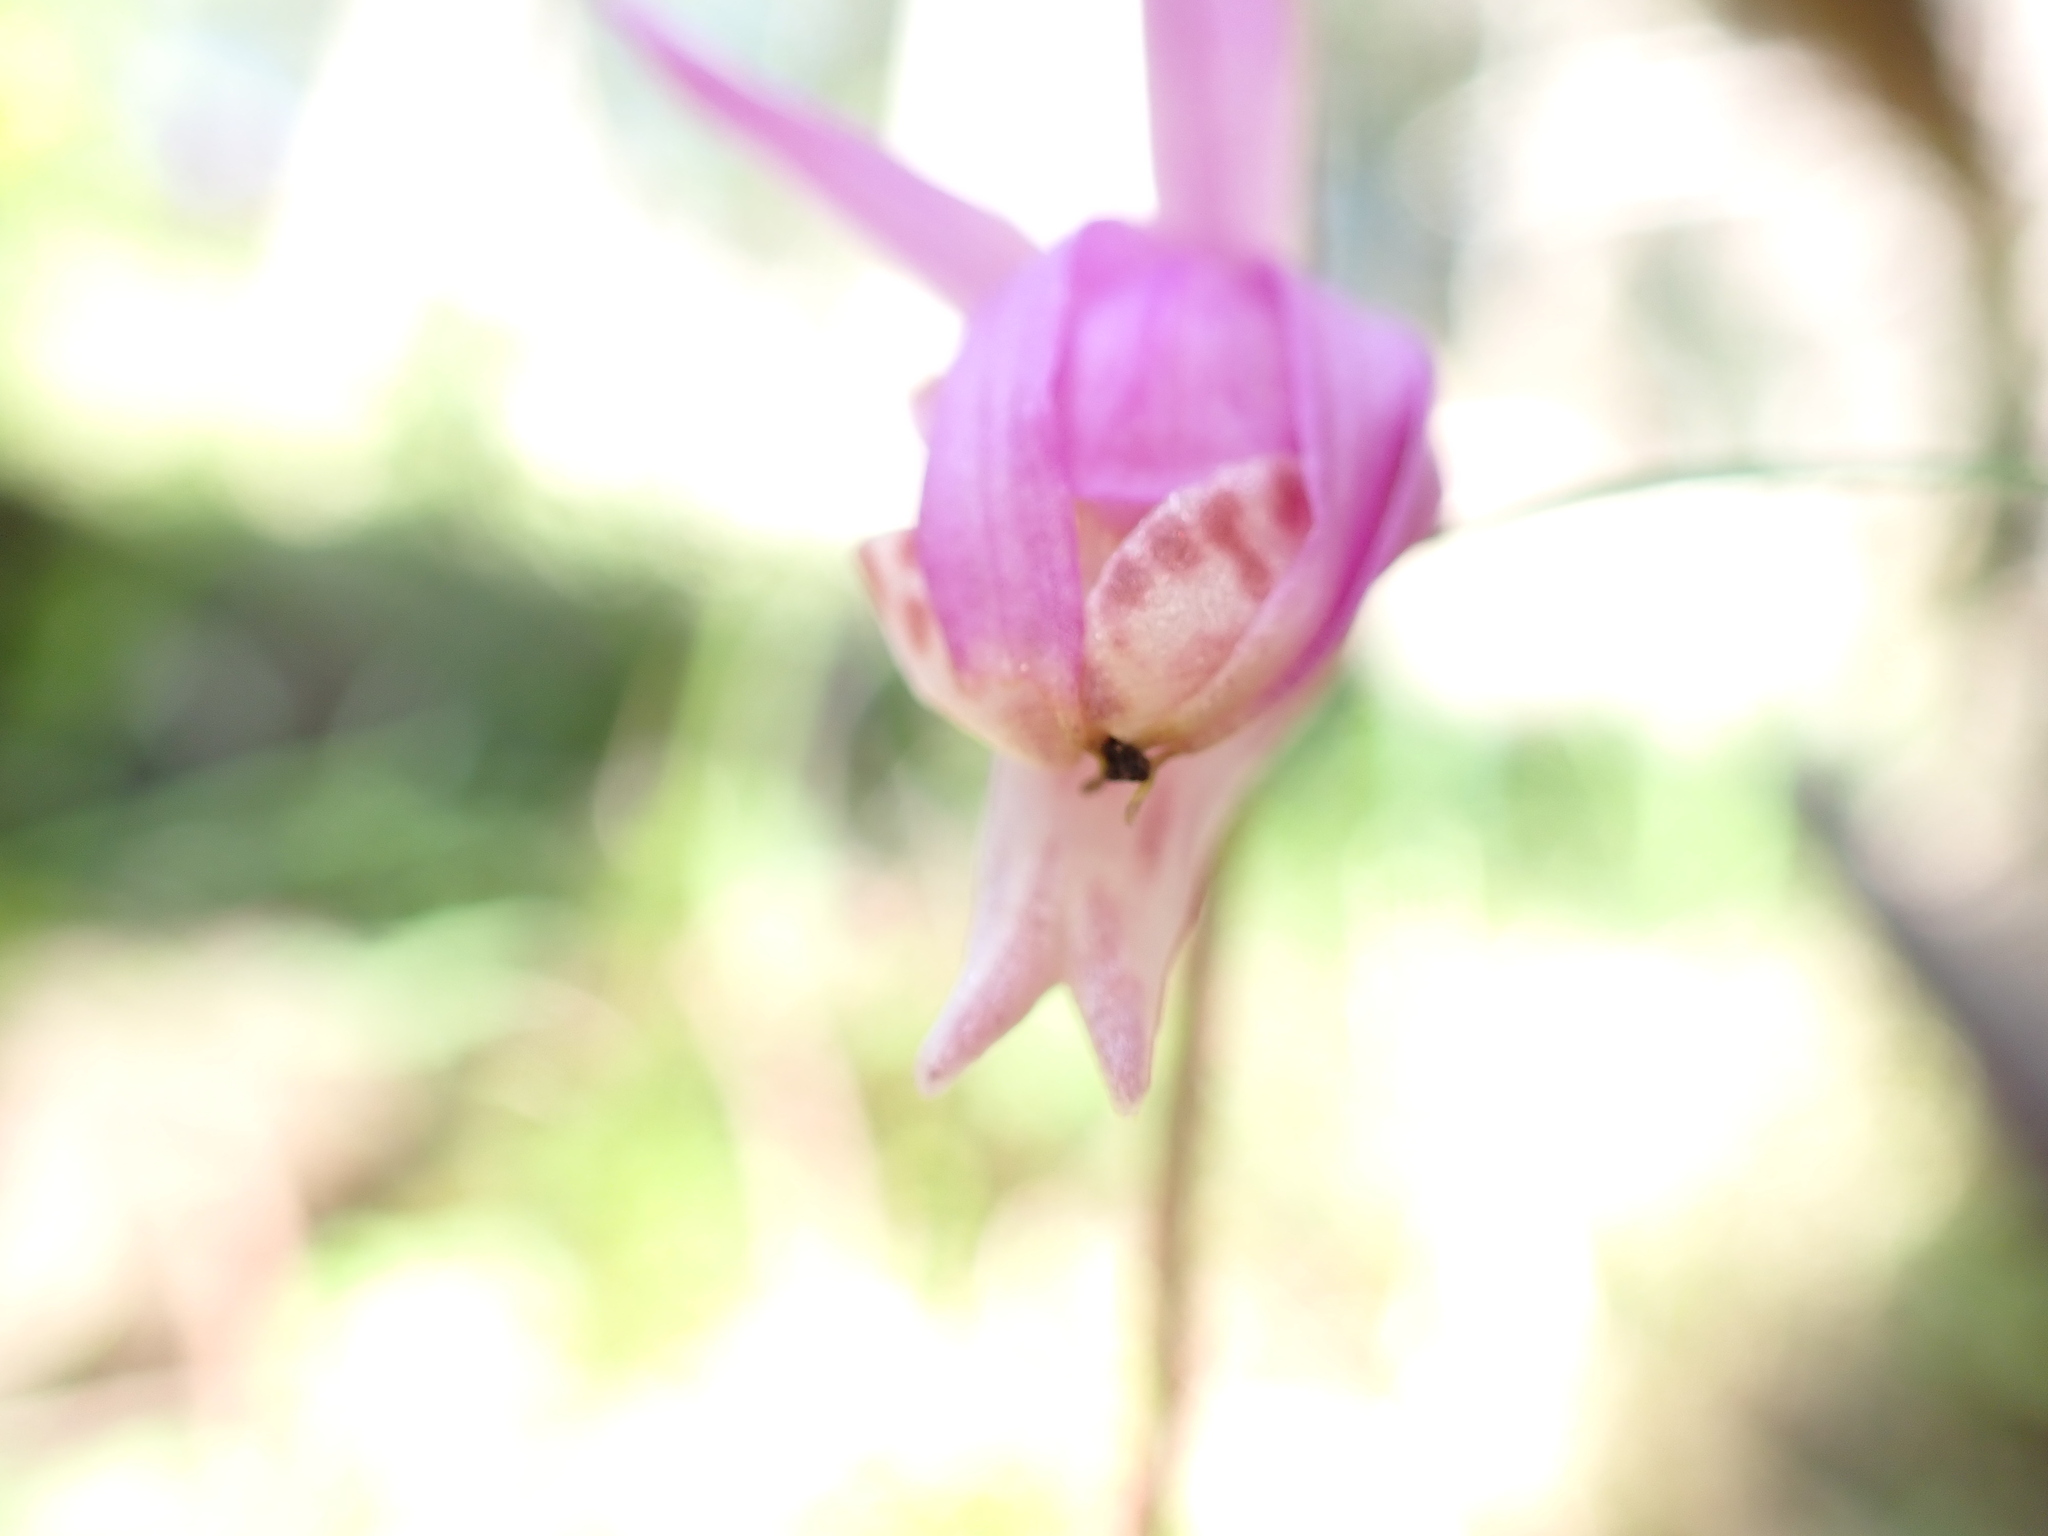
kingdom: Plantae
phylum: Tracheophyta
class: Liliopsida
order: Asparagales
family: Orchidaceae
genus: Calypso
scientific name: Calypso bulbosa
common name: Calypso
